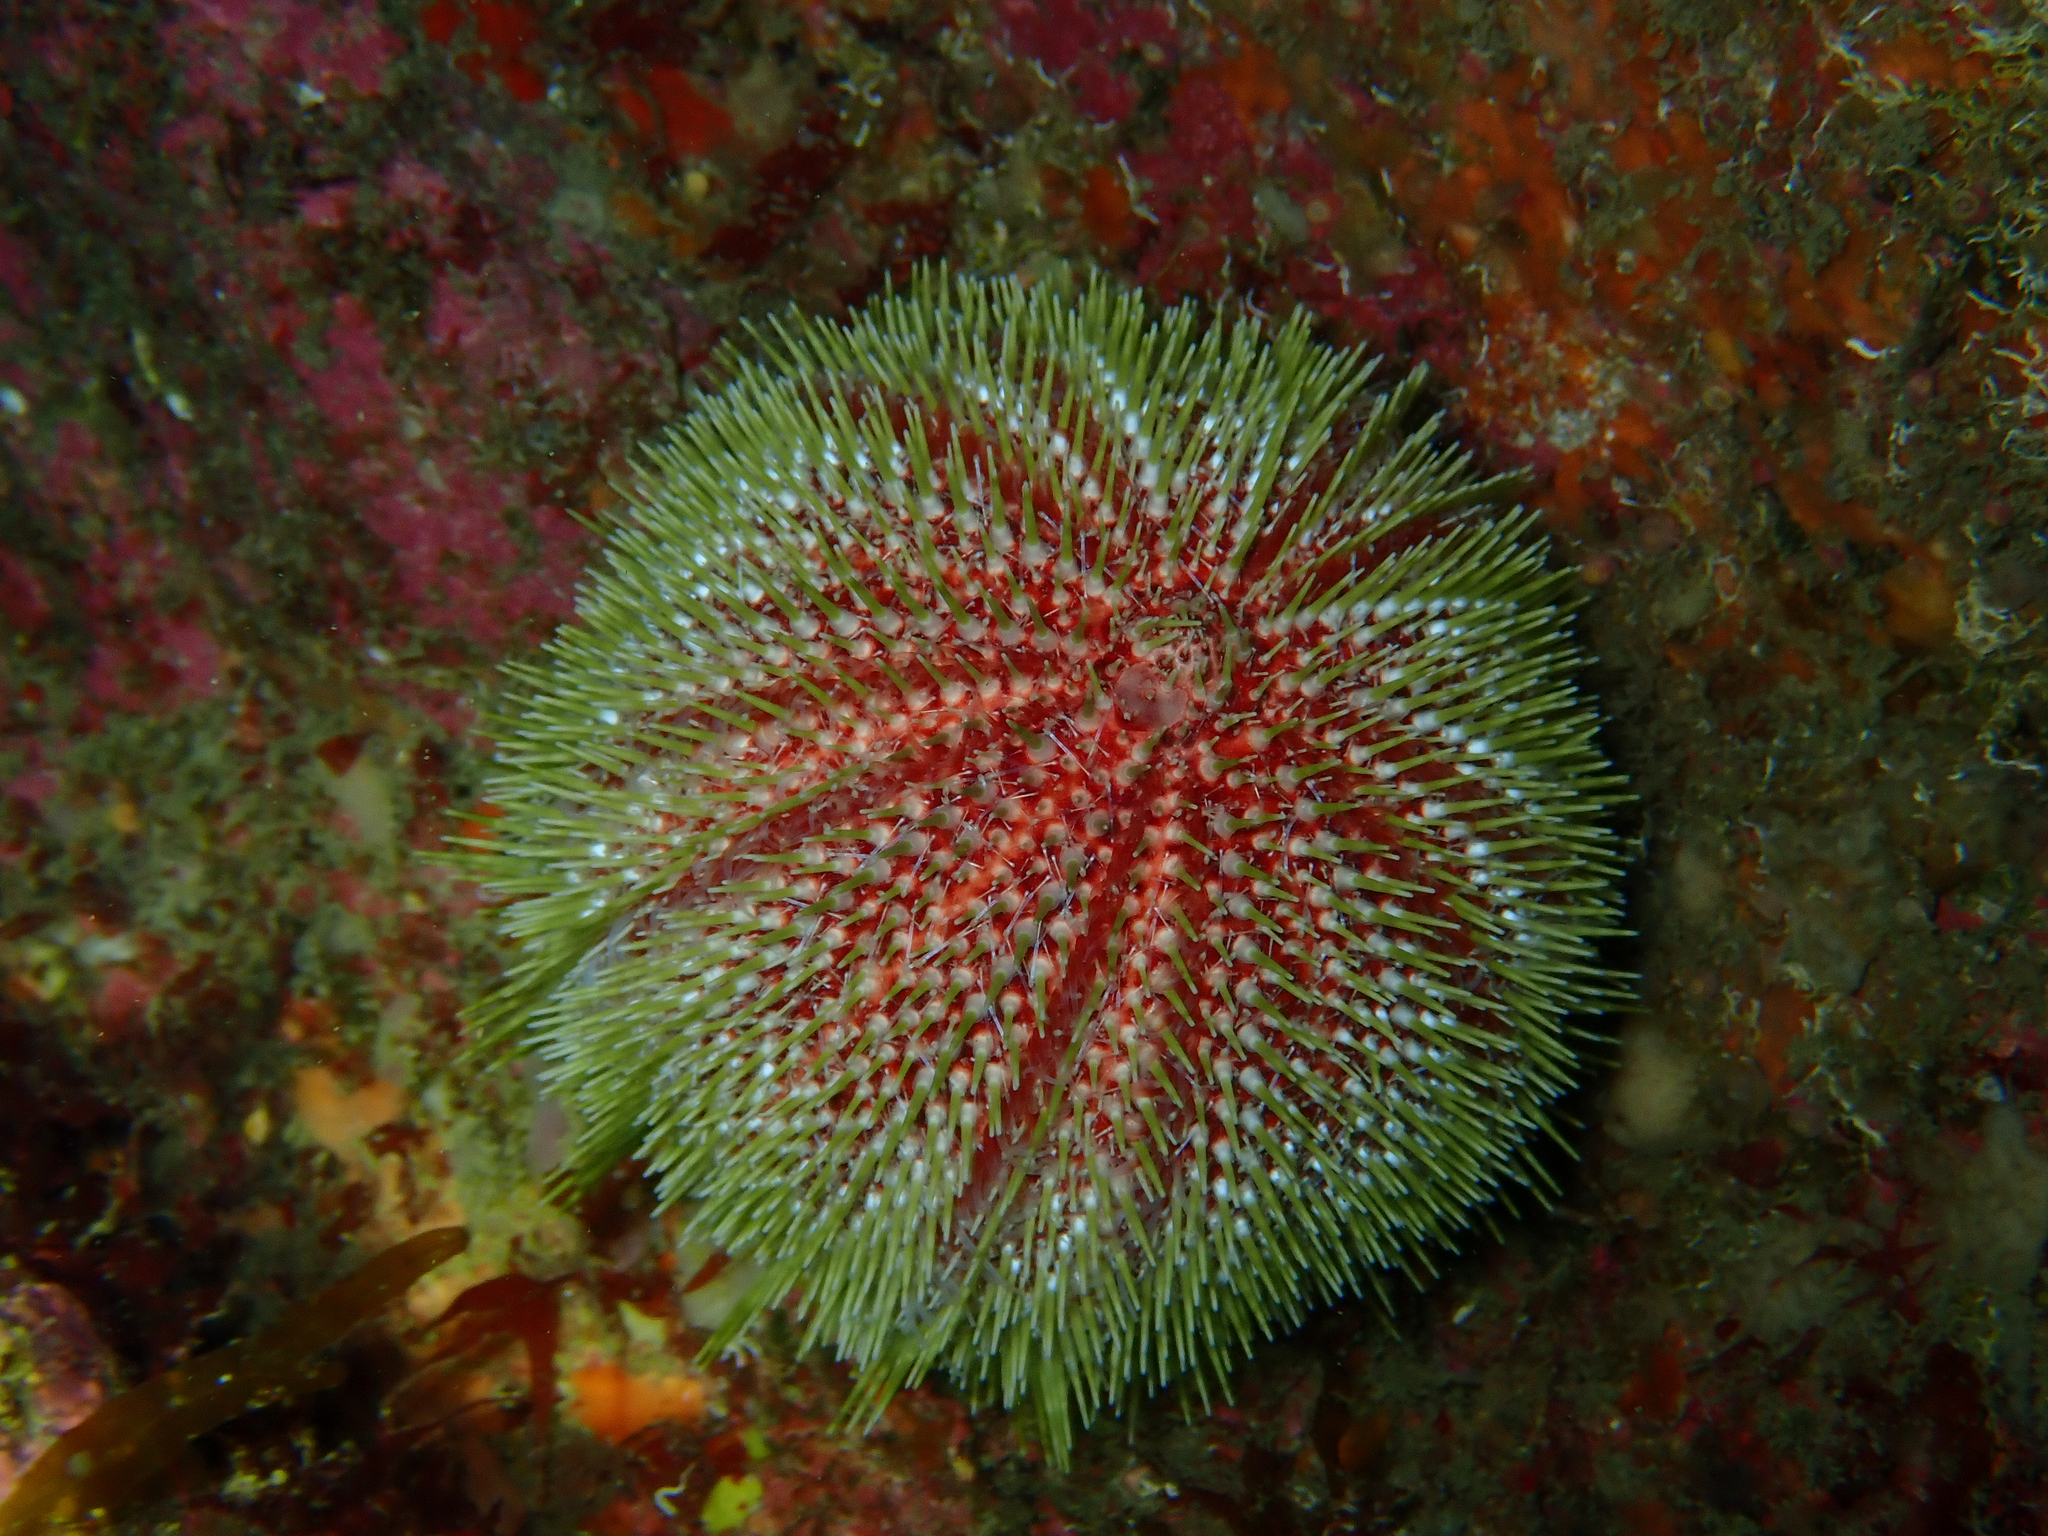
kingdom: Animalia
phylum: Echinodermata
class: Echinoidea
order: Camarodonta
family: Echinidae
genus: Echinus
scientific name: Echinus esculentus
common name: Edible sea urchin
